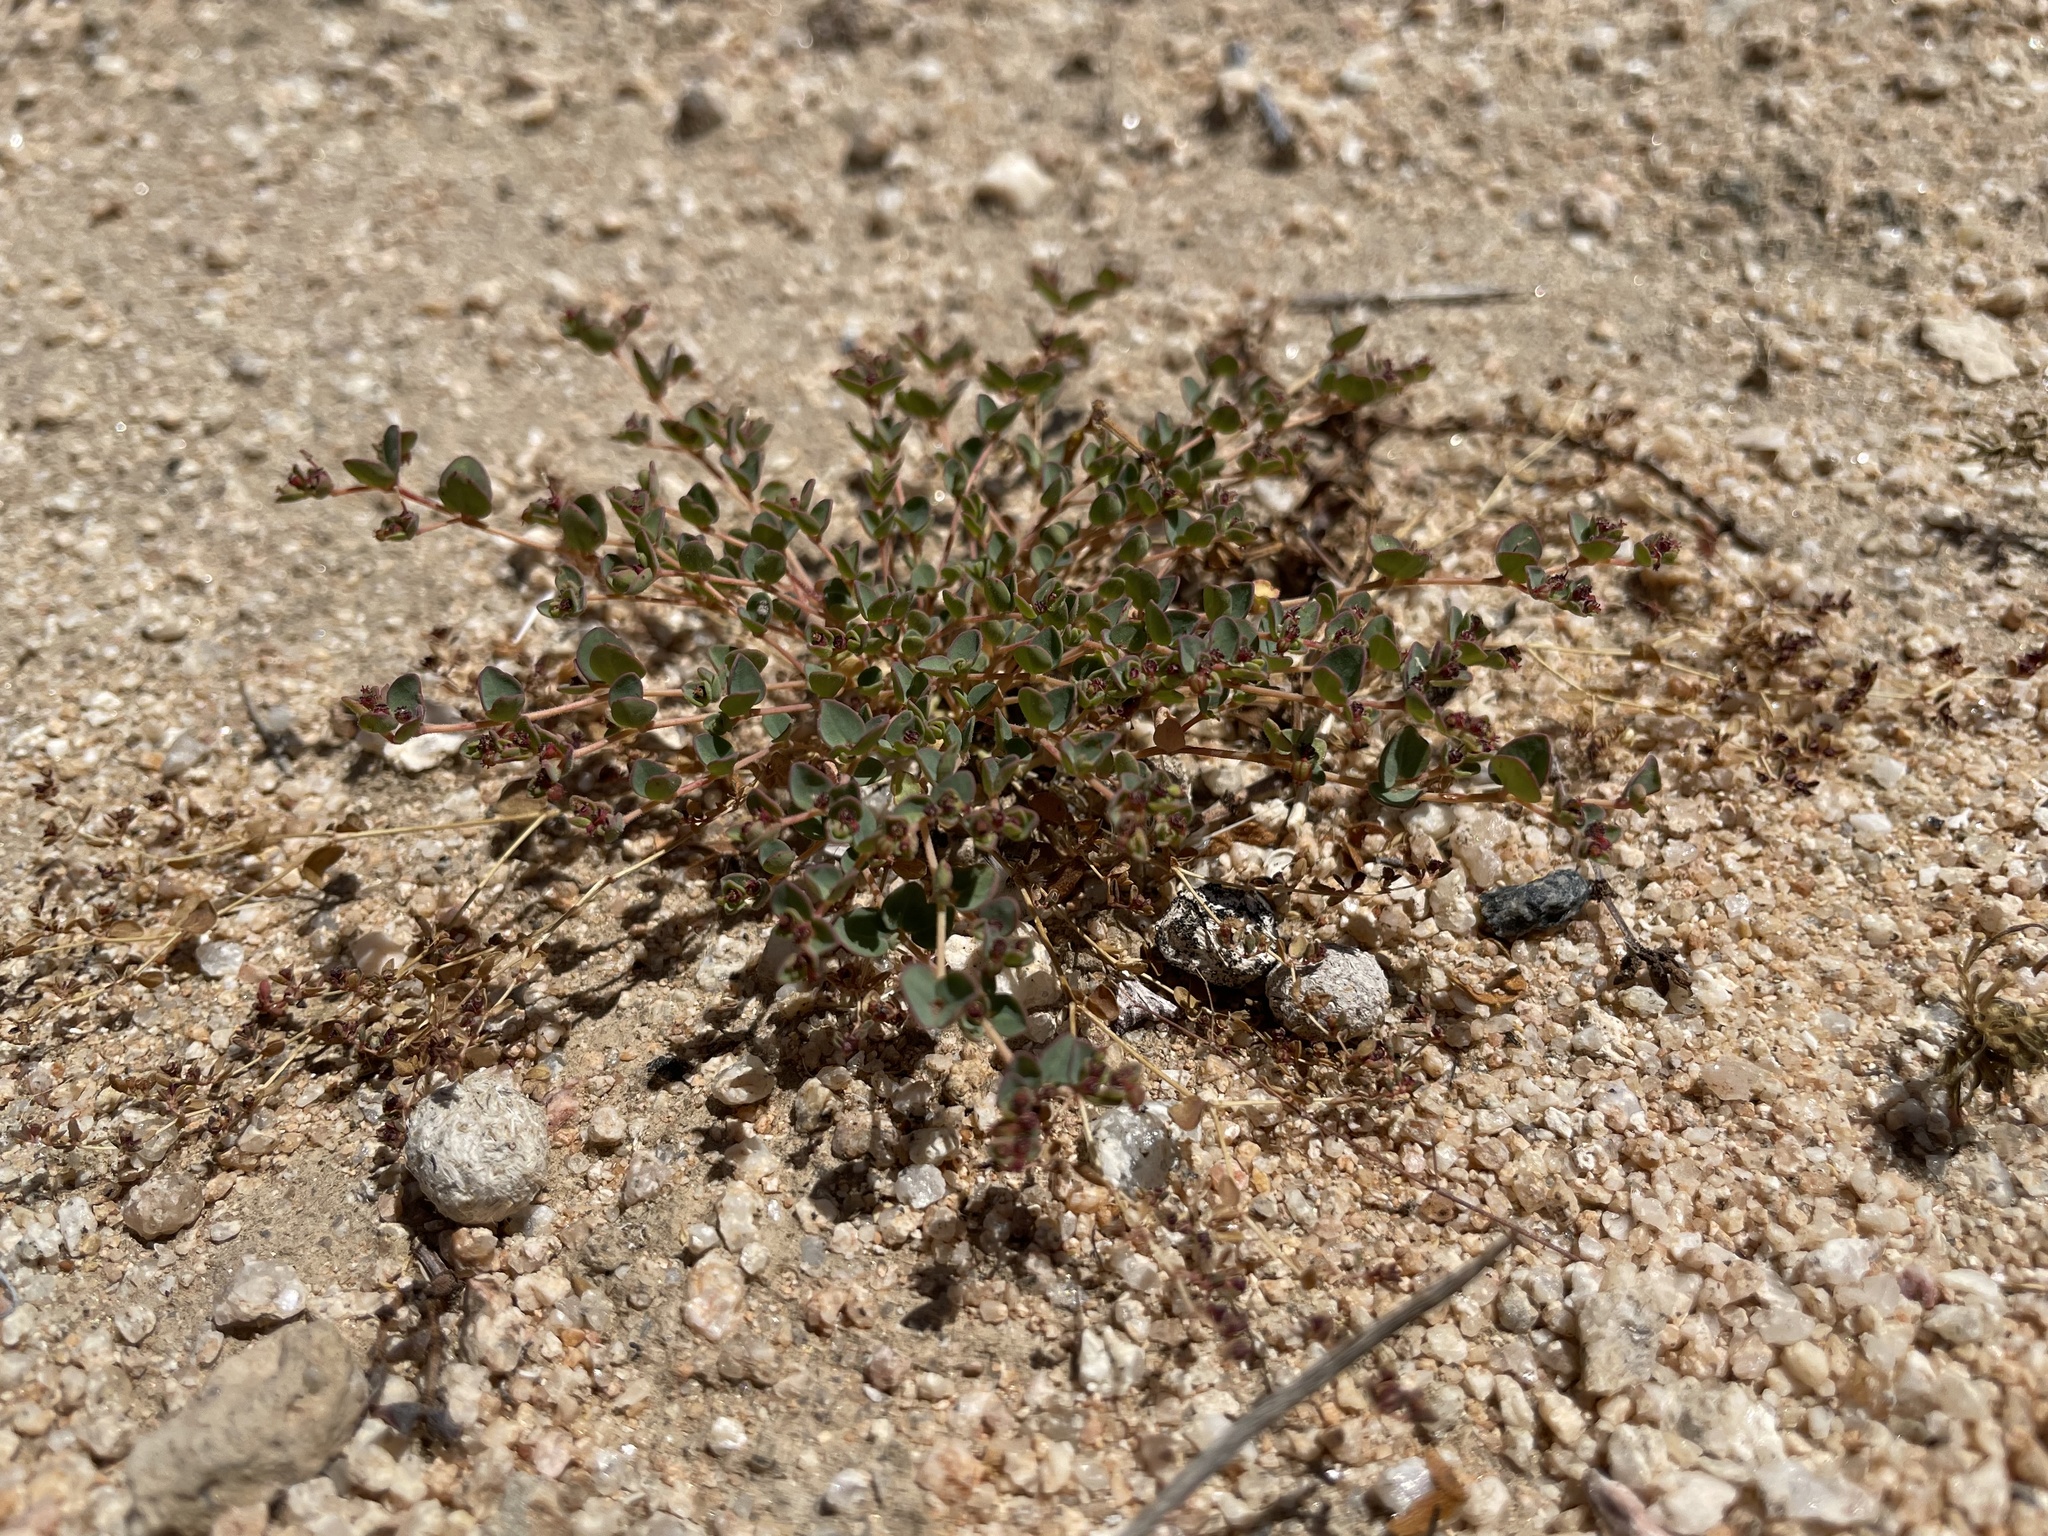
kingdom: Plantae
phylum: Tracheophyta
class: Magnoliopsida
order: Malpighiales
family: Euphorbiaceae
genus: Euphorbia
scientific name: Euphorbia polycarpa
